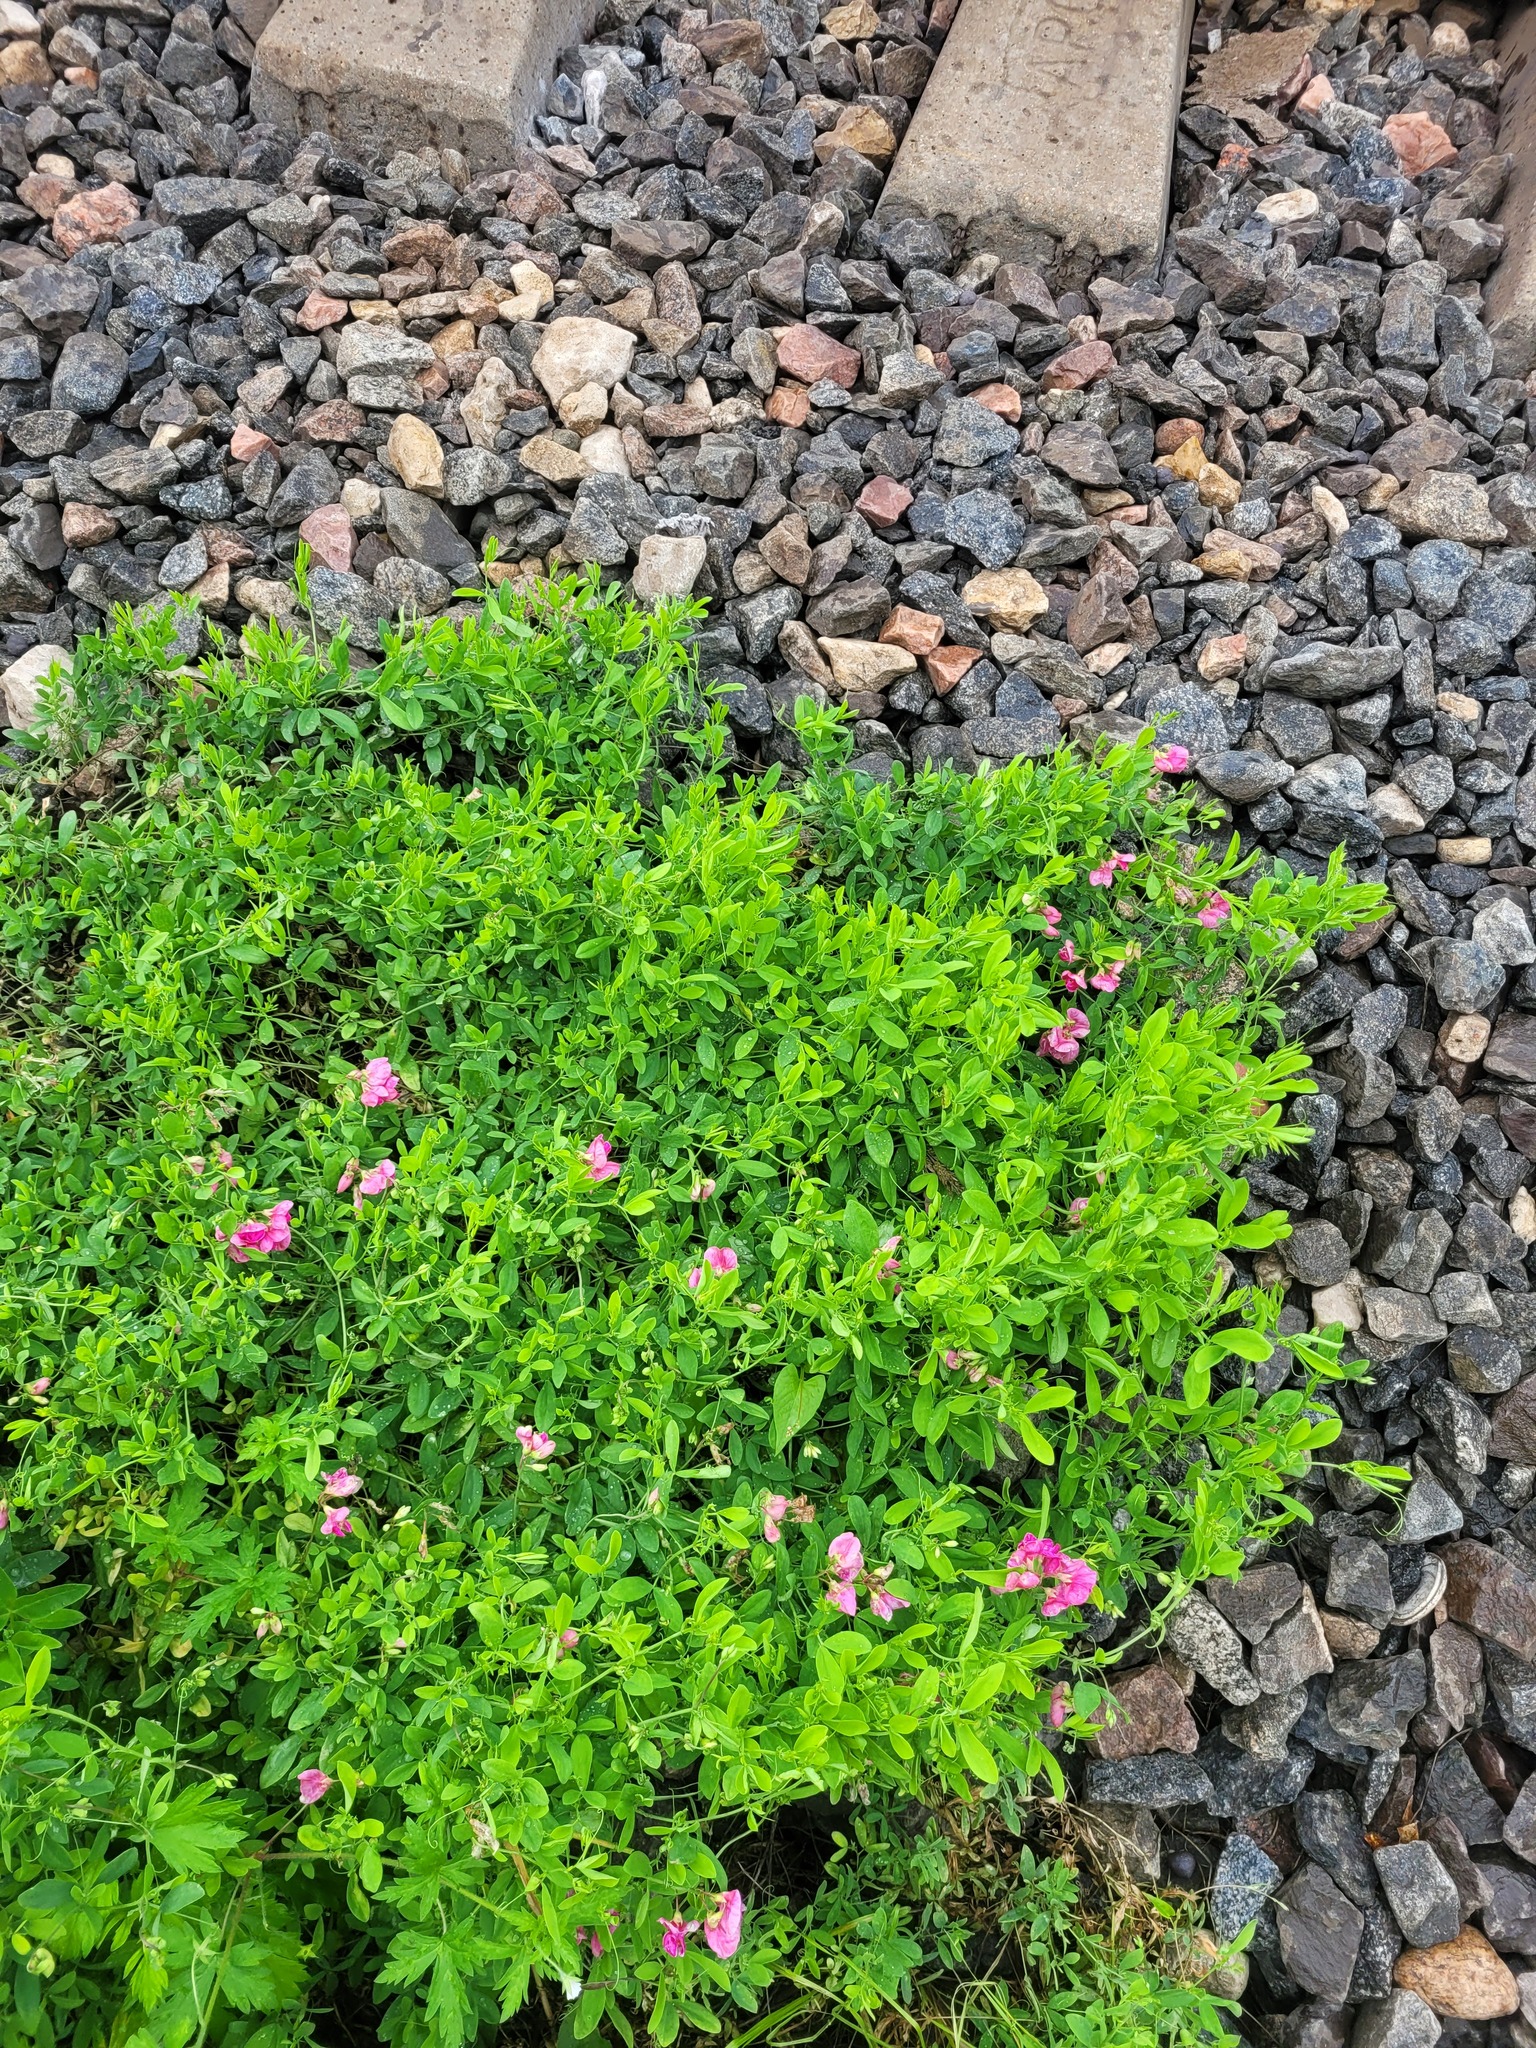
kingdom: Plantae
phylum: Tracheophyta
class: Magnoliopsida
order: Fabales
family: Fabaceae
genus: Lathyrus
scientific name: Lathyrus tuberosus
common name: Tuberous pea
